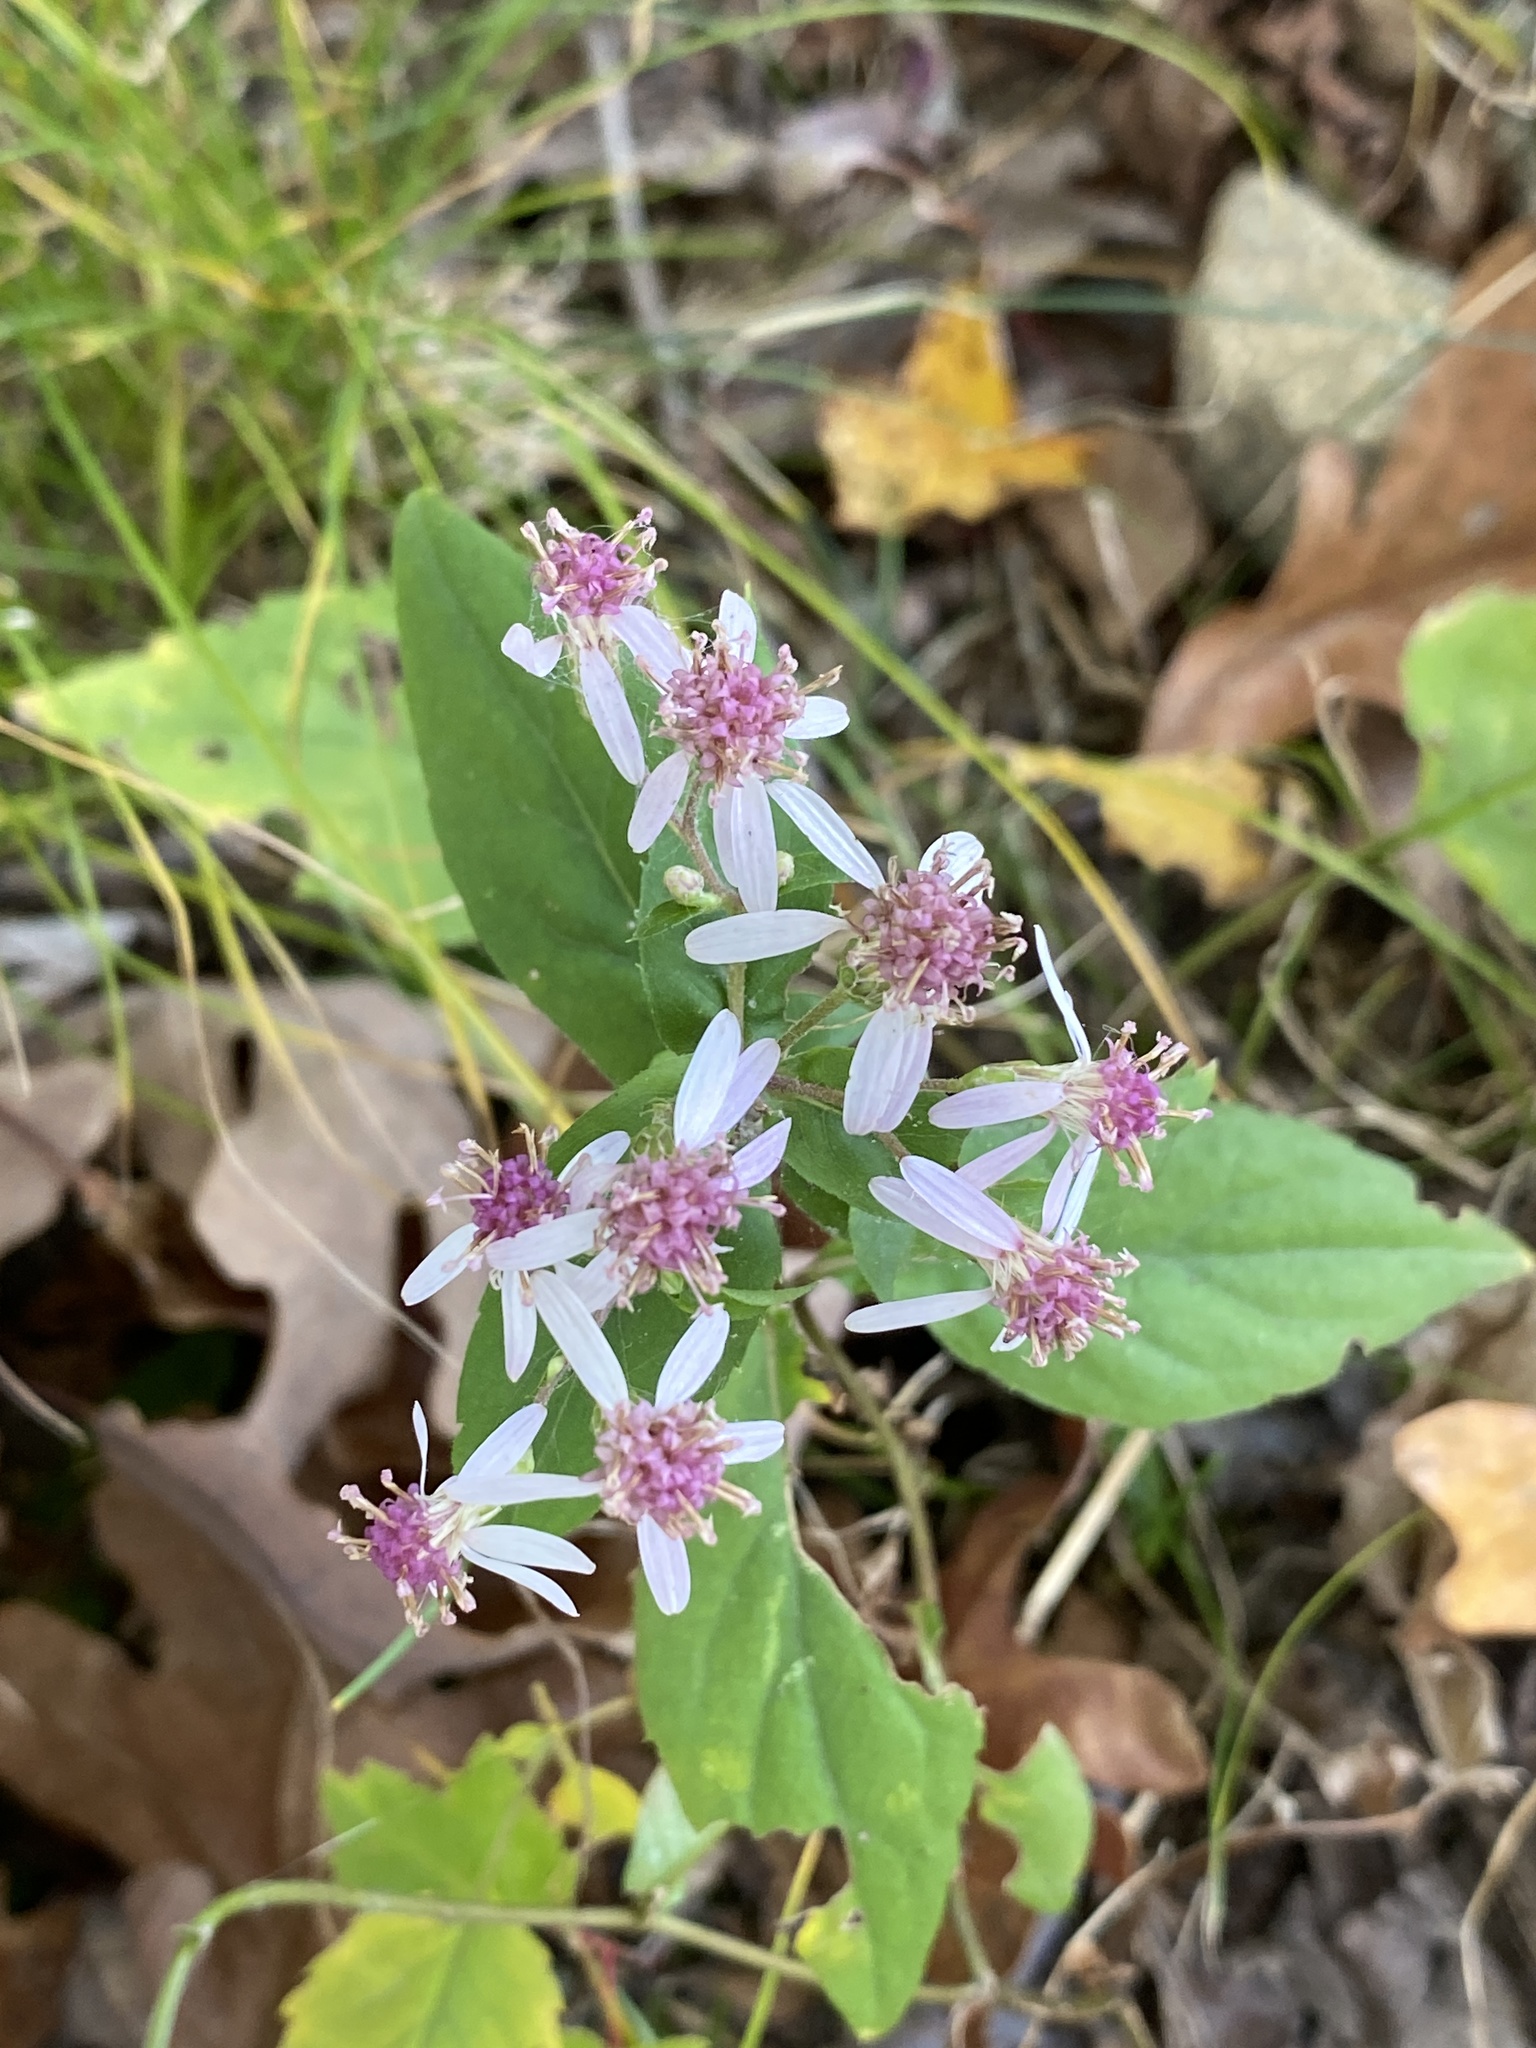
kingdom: Plantae
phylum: Tracheophyta
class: Magnoliopsida
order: Asterales
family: Asteraceae
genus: Symphyotrichum
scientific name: Symphyotrichum cordifolium
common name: Beeweed
